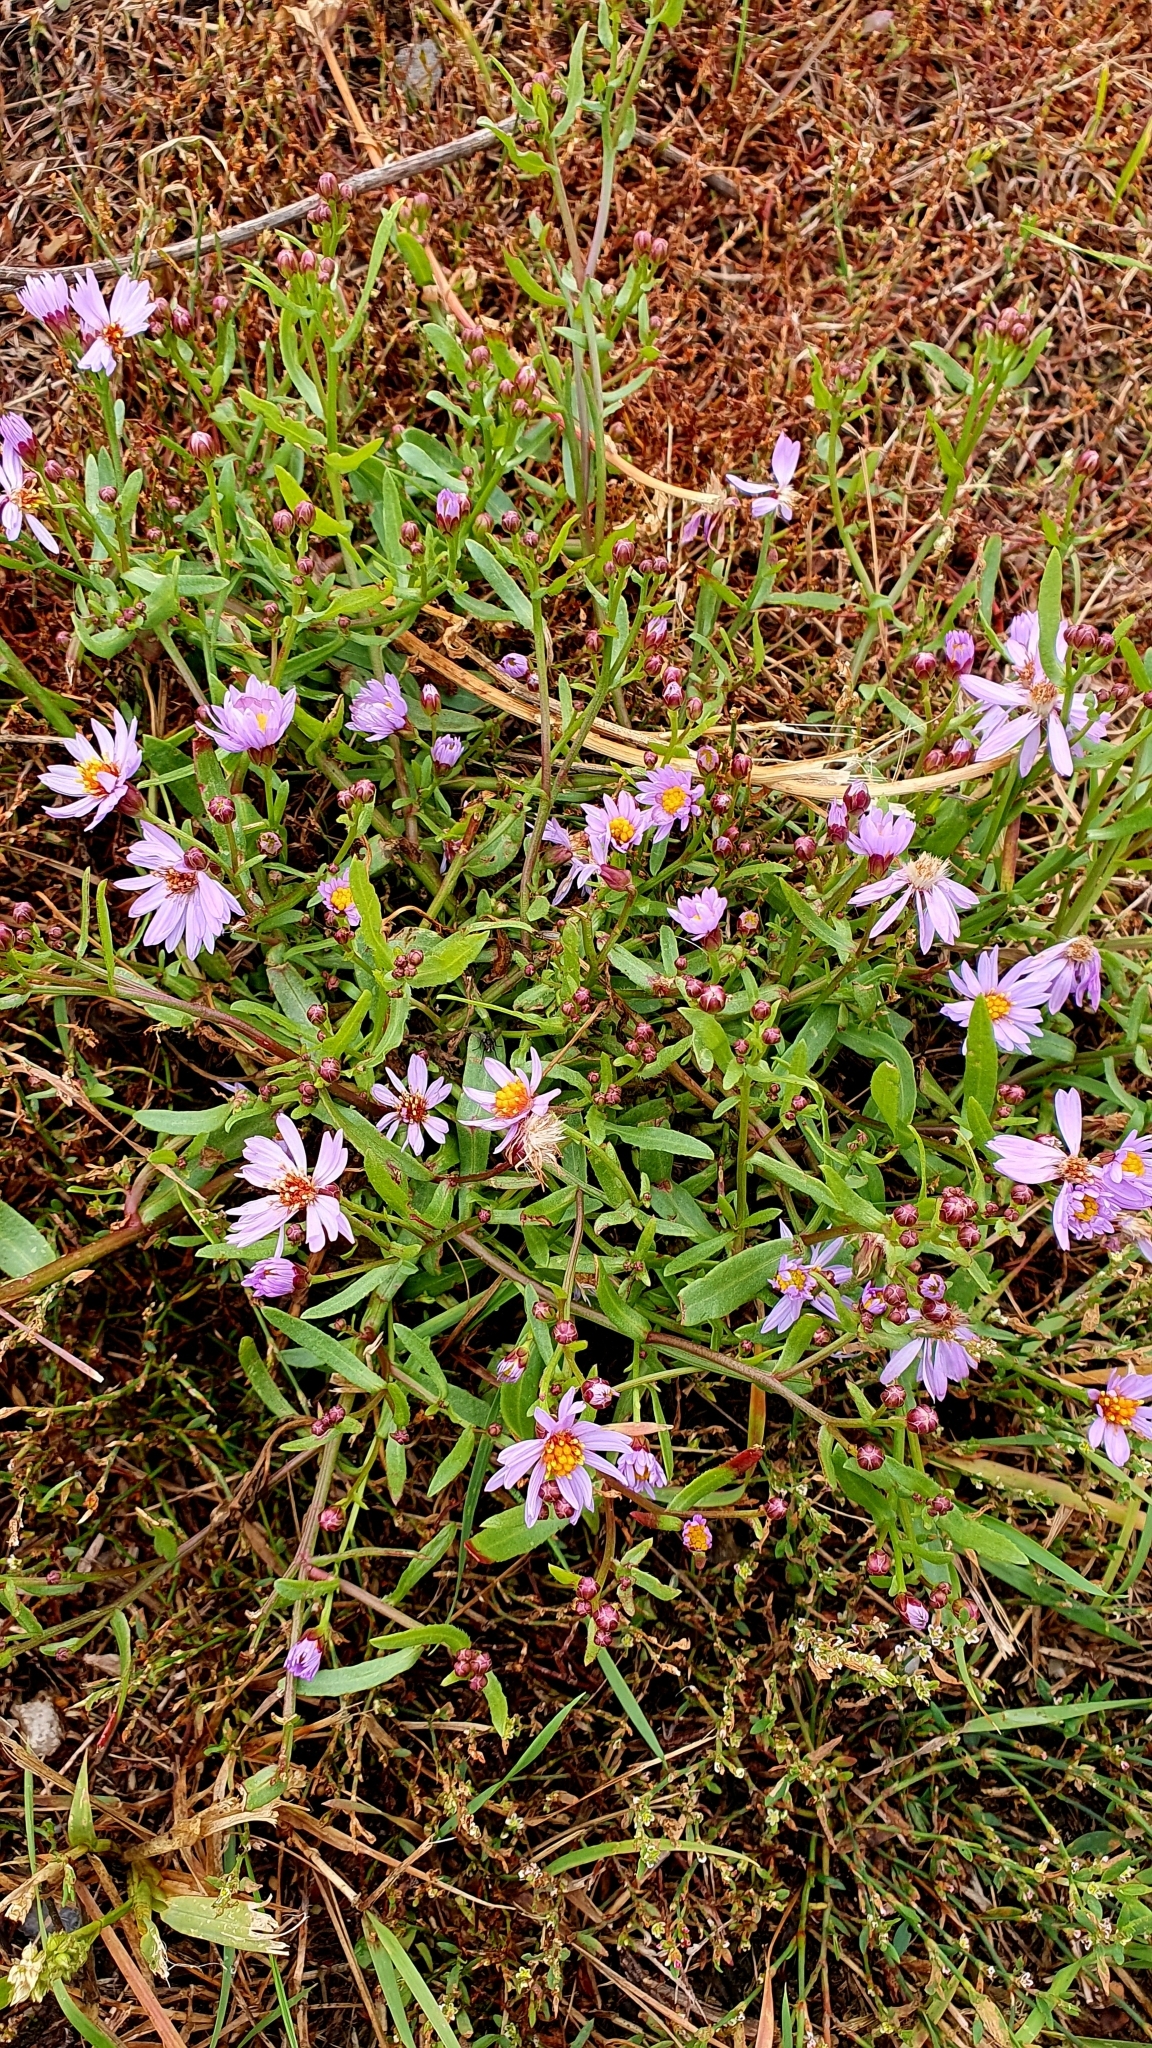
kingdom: Plantae
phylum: Tracheophyta
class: Magnoliopsida
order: Asterales
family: Asteraceae
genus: Tripolium
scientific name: Tripolium pannonicum
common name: Sea aster
